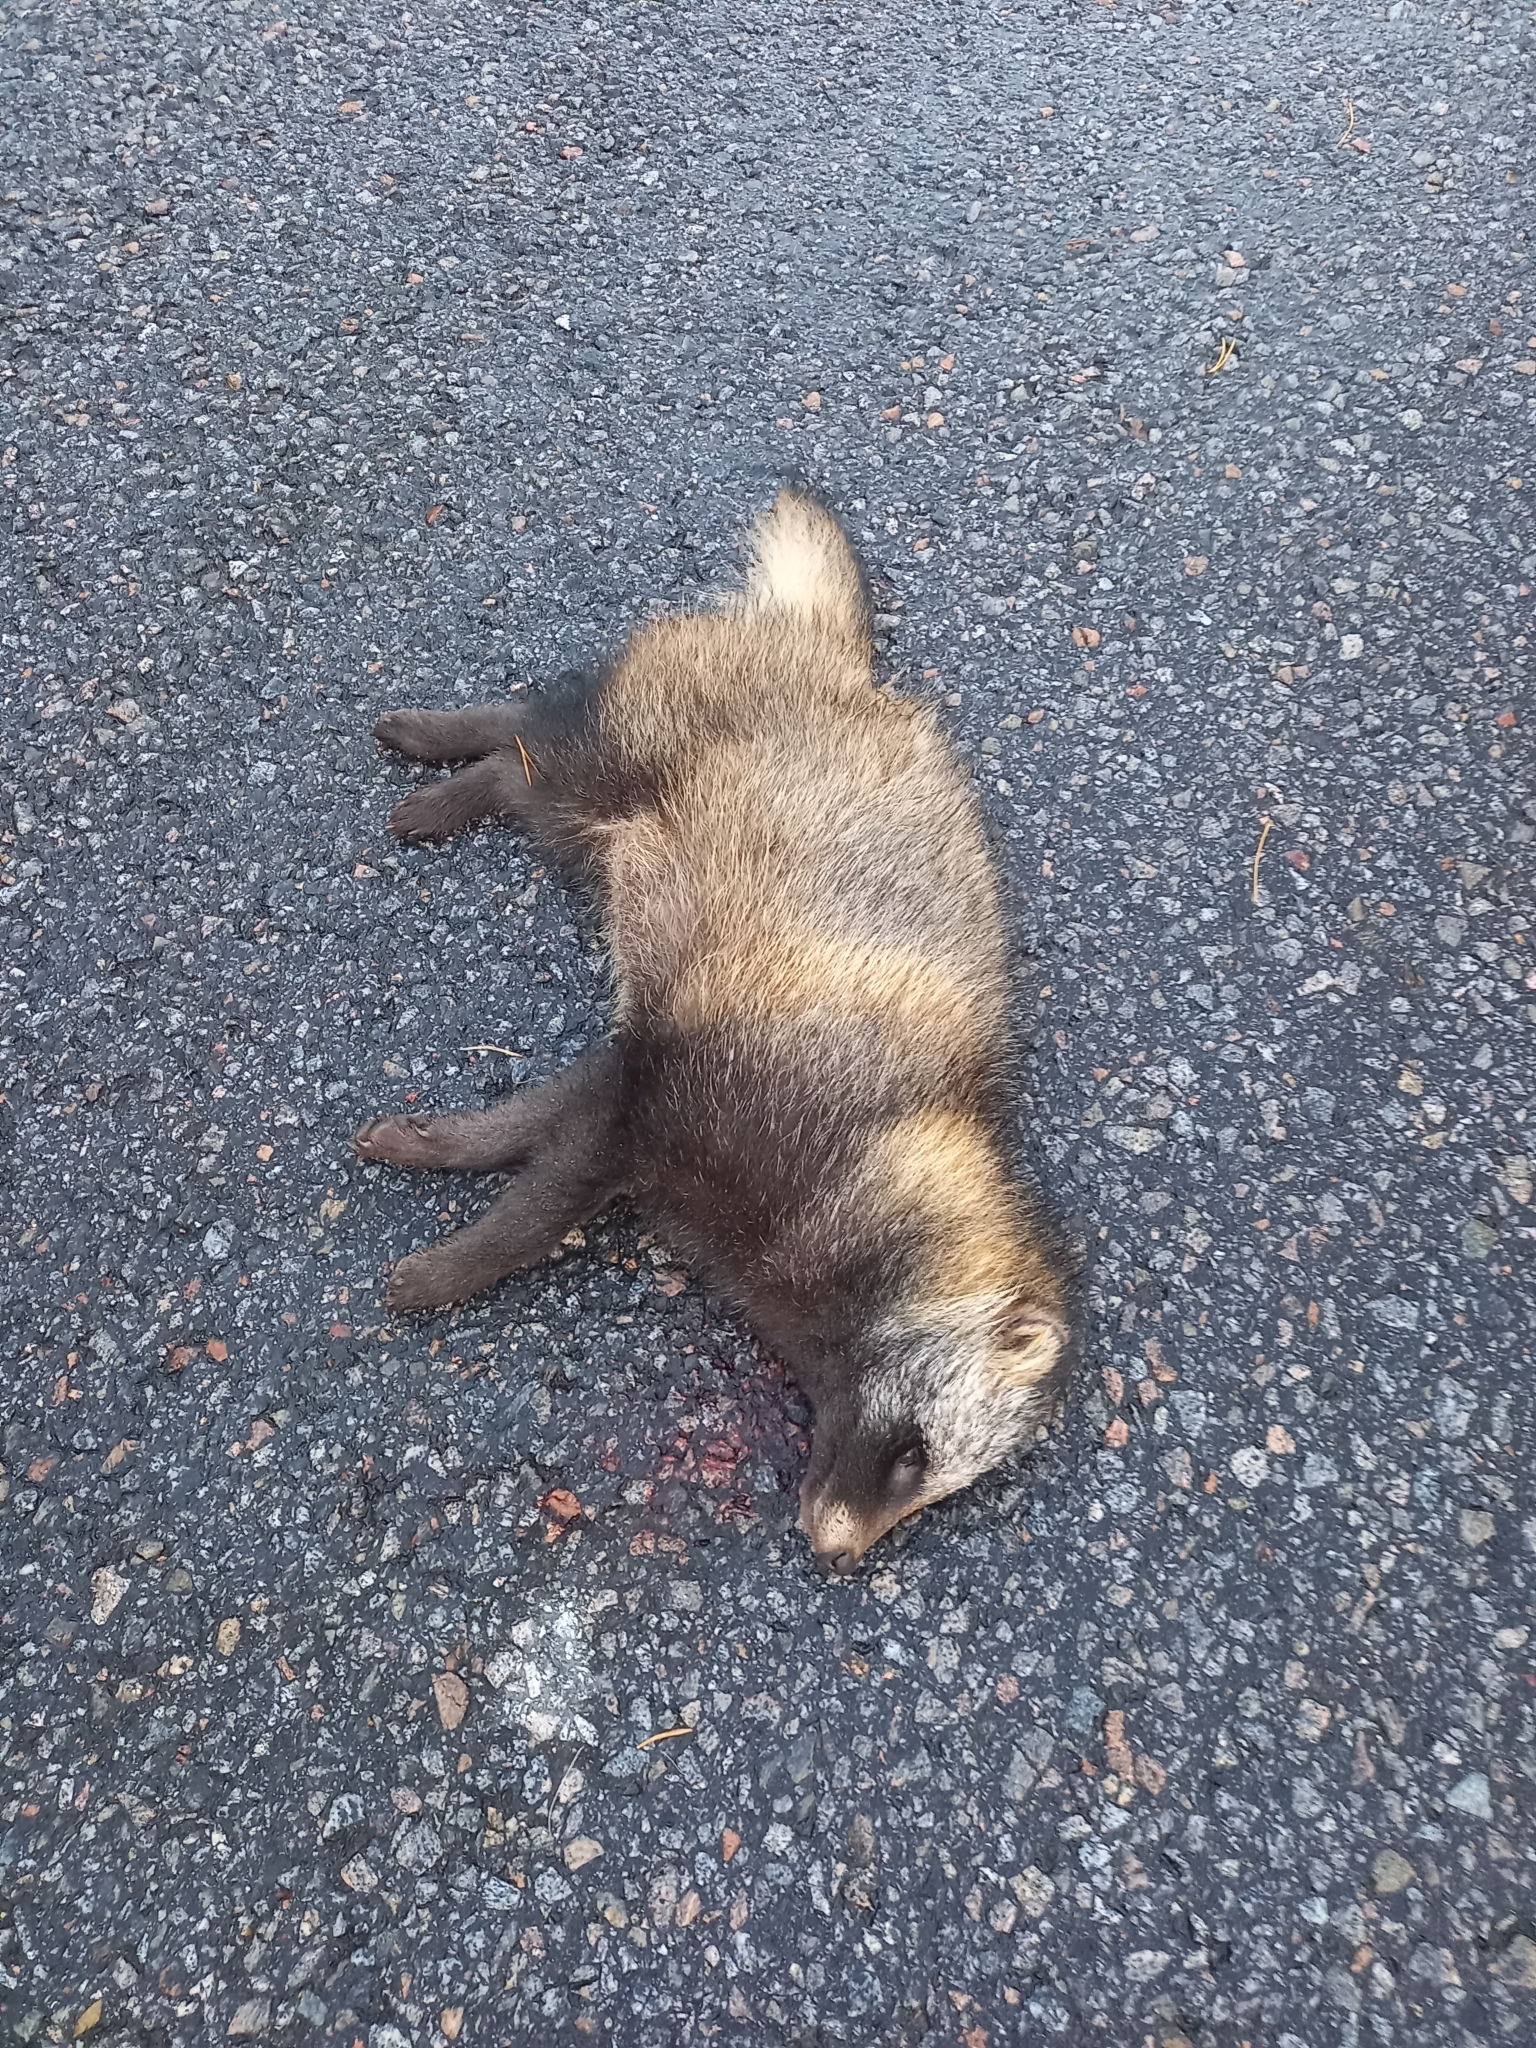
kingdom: Animalia
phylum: Chordata
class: Mammalia
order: Carnivora
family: Canidae
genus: Nyctereutes
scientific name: Nyctereutes procyonoides
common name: Raccoon dog
